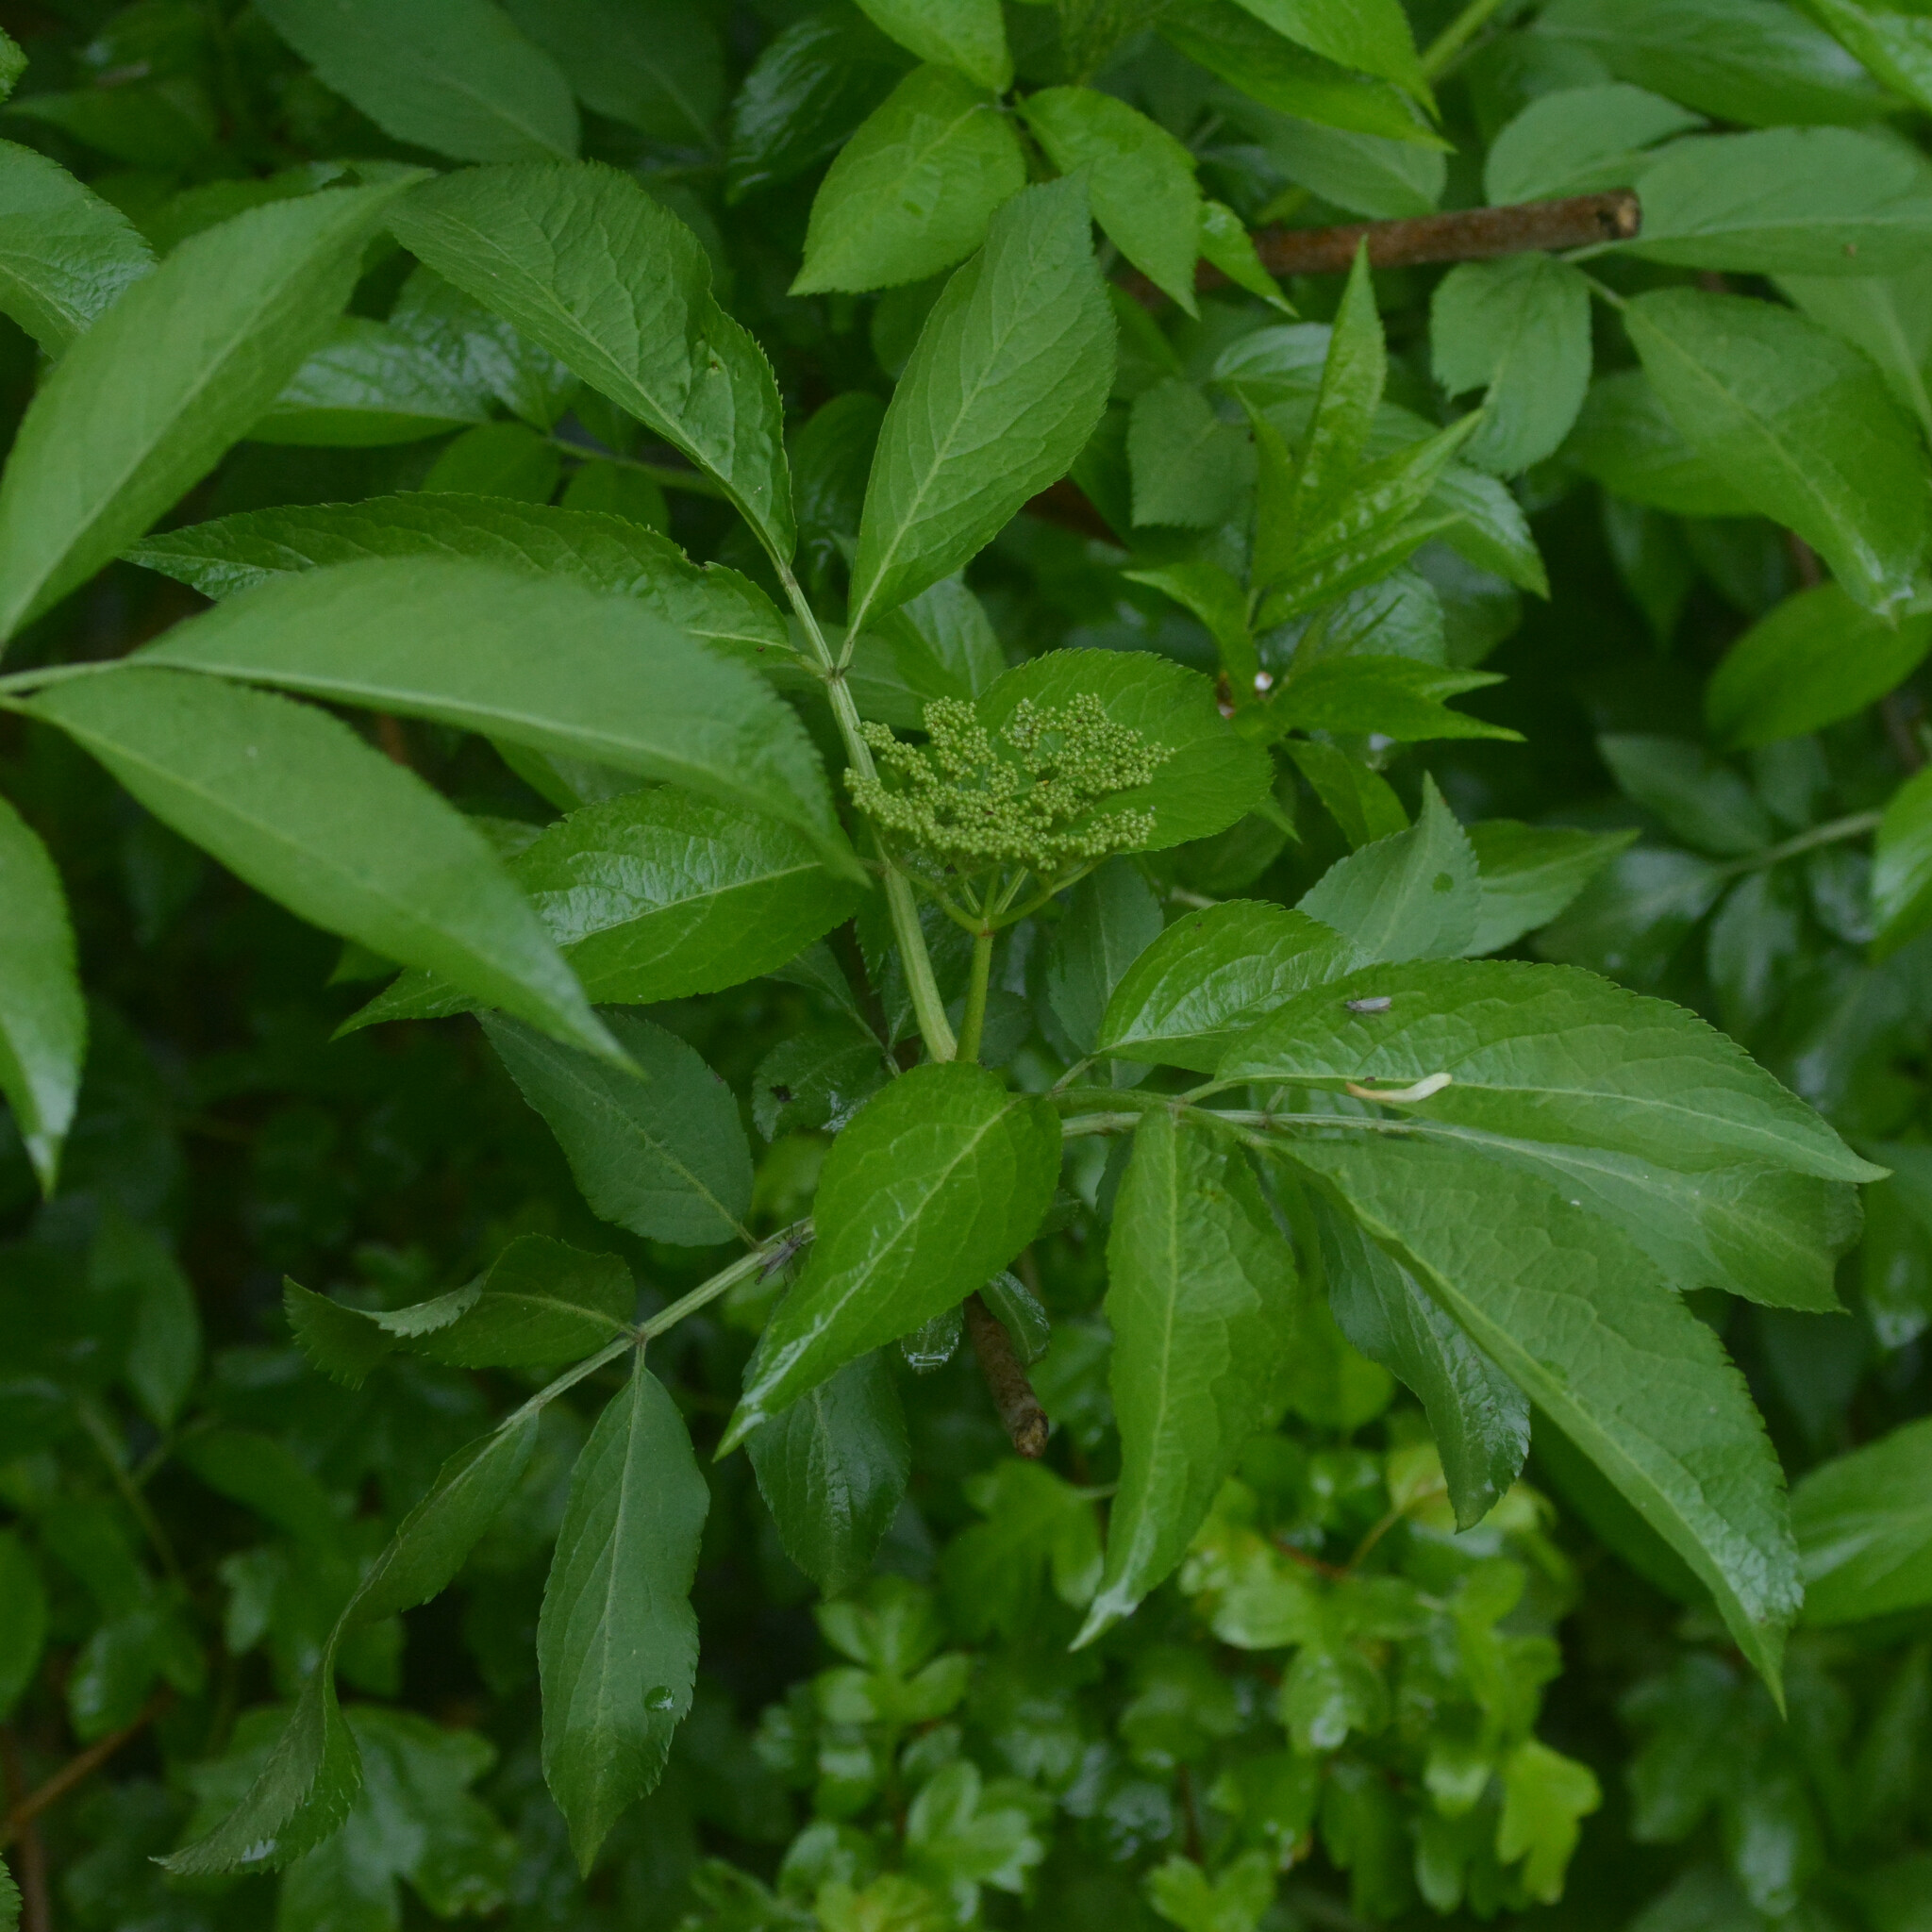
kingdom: Plantae
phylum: Tracheophyta
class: Magnoliopsida
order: Dipsacales
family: Viburnaceae
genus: Sambucus
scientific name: Sambucus nigra
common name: Elder
